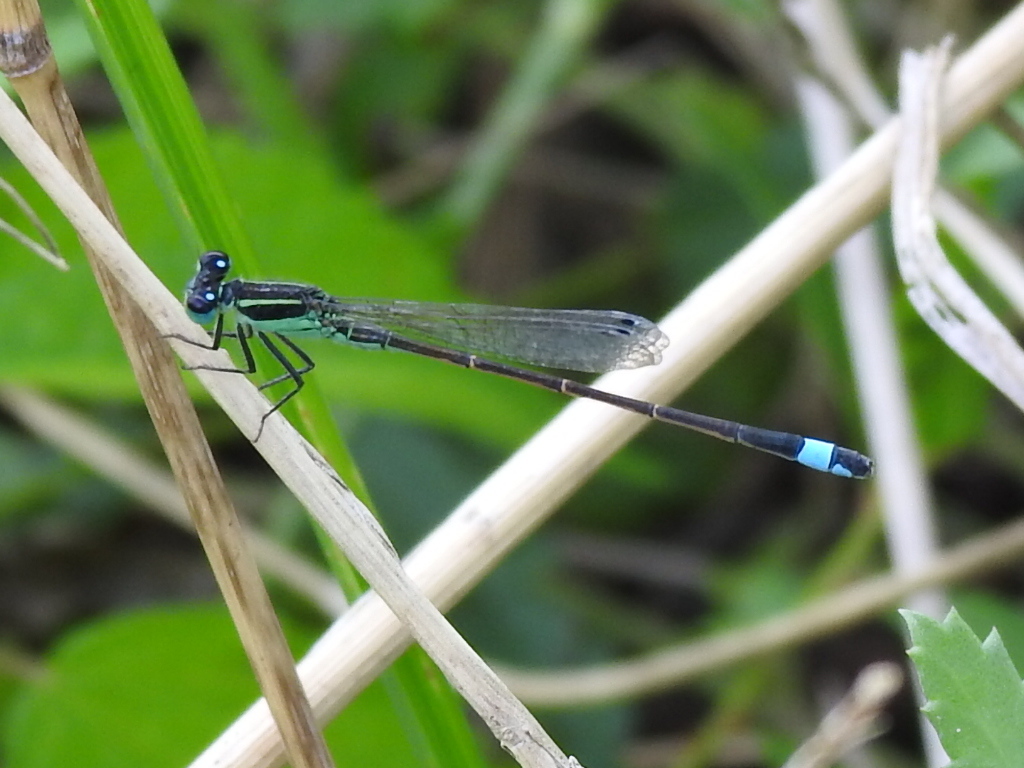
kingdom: Animalia
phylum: Arthropoda
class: Insecta
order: Odonata
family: Coenagrionidae
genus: Ischnura
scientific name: Ischnura ramburii
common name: Rambur's forktail
